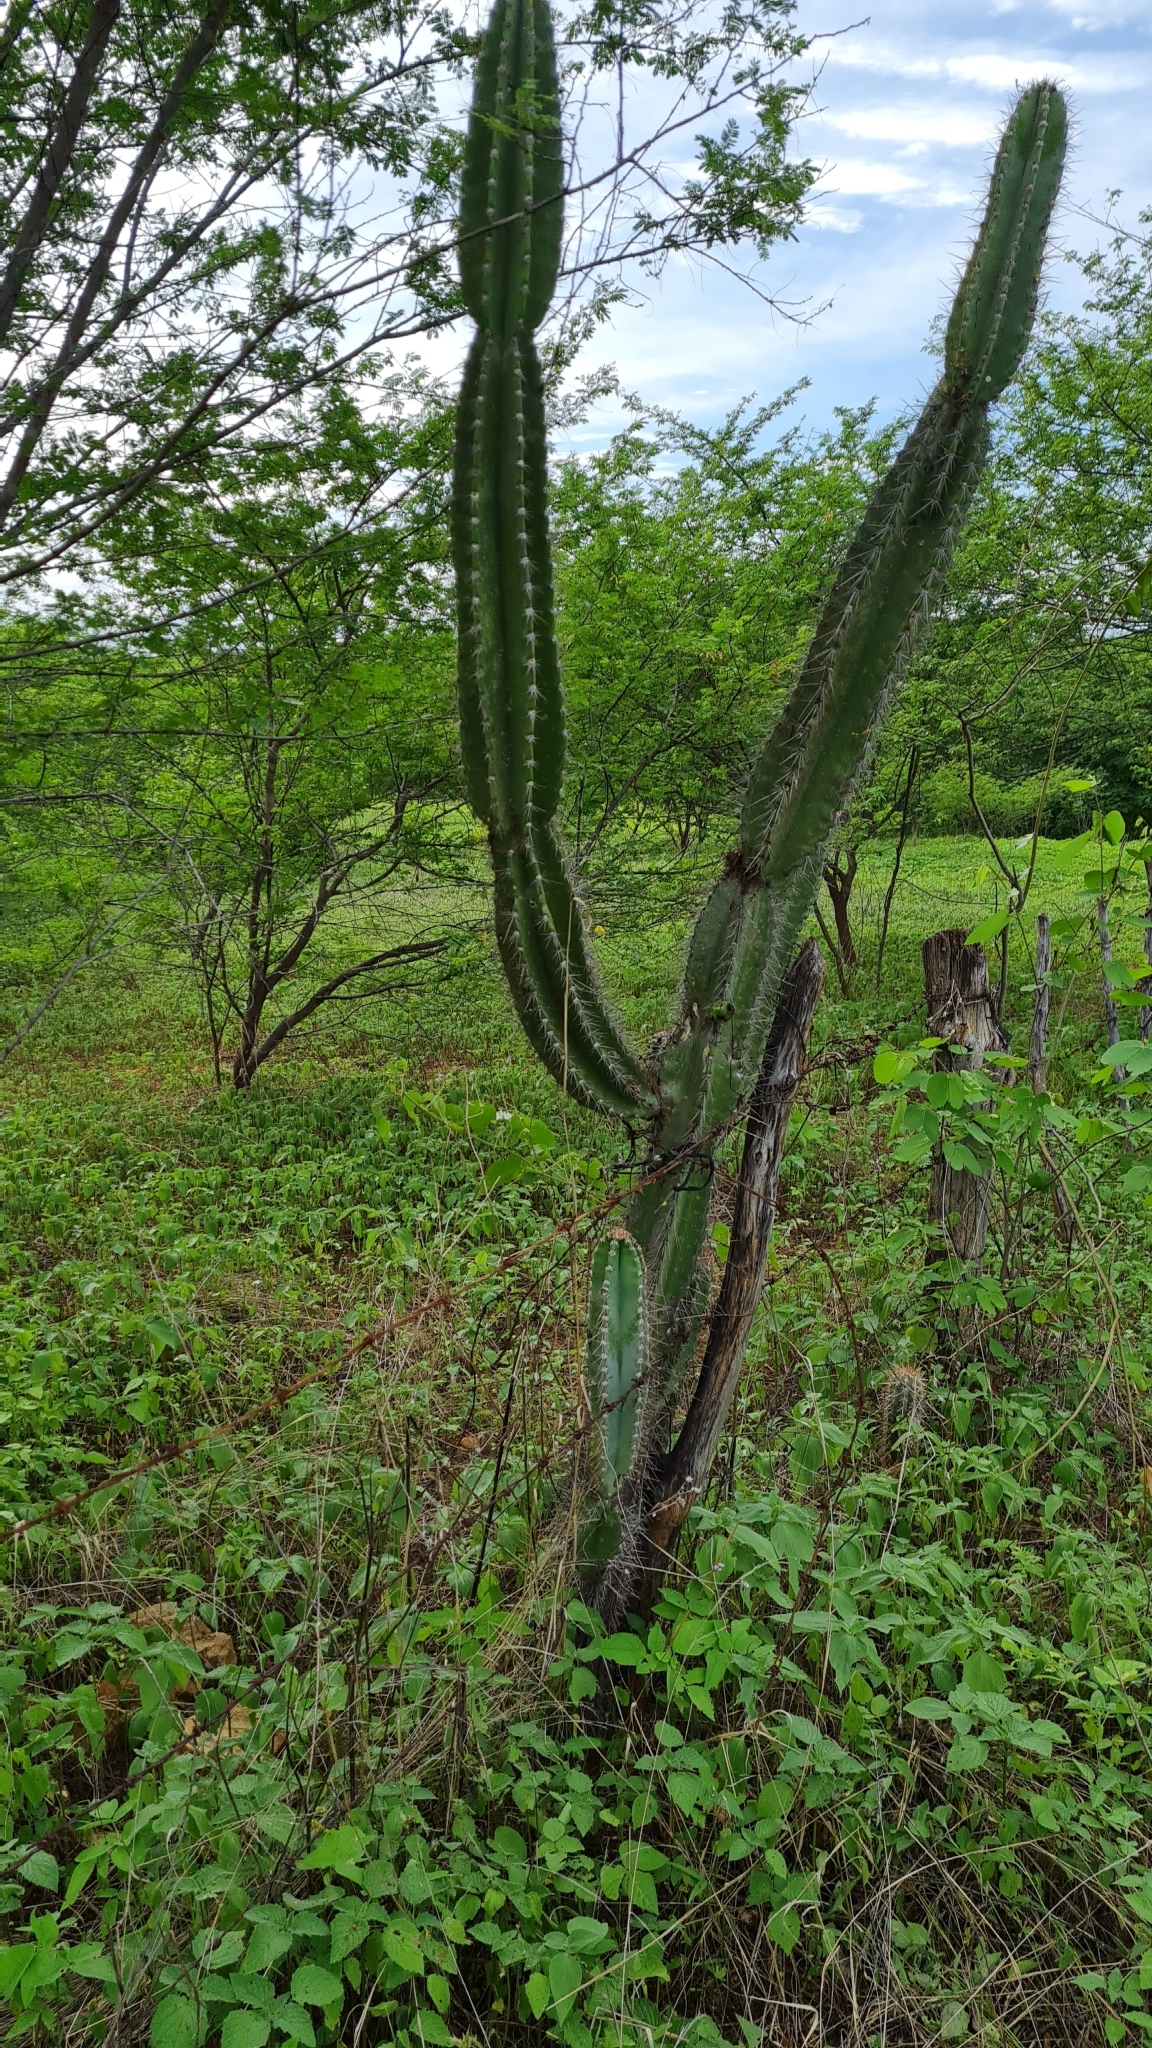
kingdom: Plantae
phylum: Tracheophyta
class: Magnoliopsida
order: Caryophyllales
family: Cactaceae
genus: Cereus
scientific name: Cereus jamacaru
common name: Queen-of-the-night
